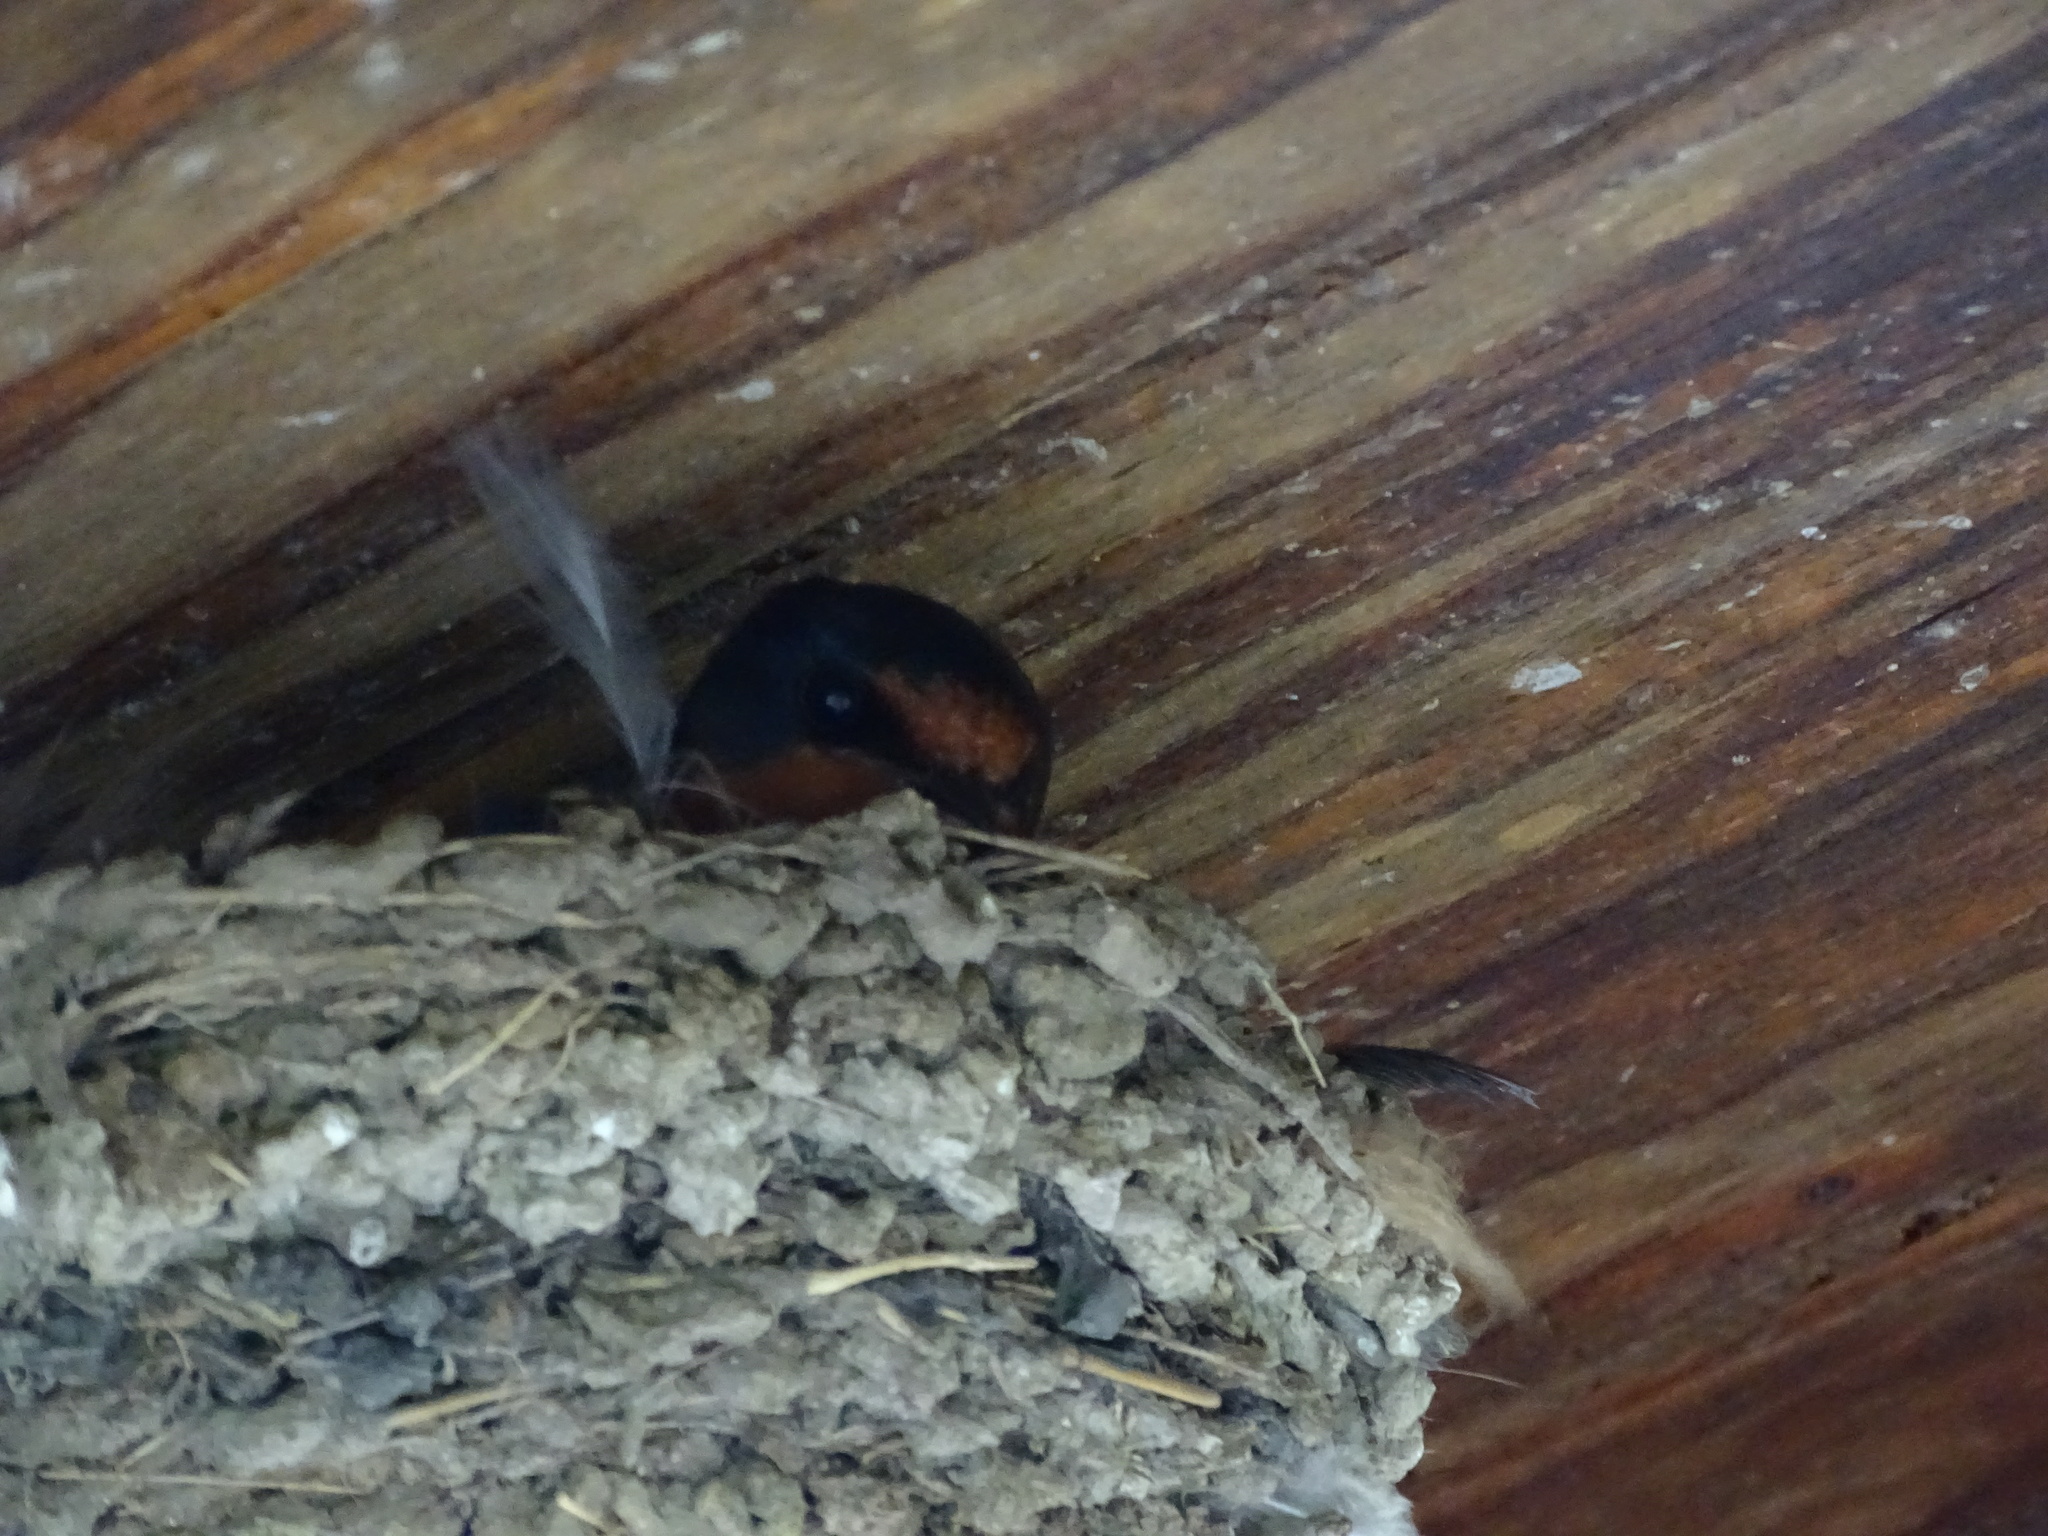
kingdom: Animalia
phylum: Chordata
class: Aves
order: Passeriformes
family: Hirundinidae
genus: Hirundo
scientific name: Hirundo rustica
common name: Barn swallow
